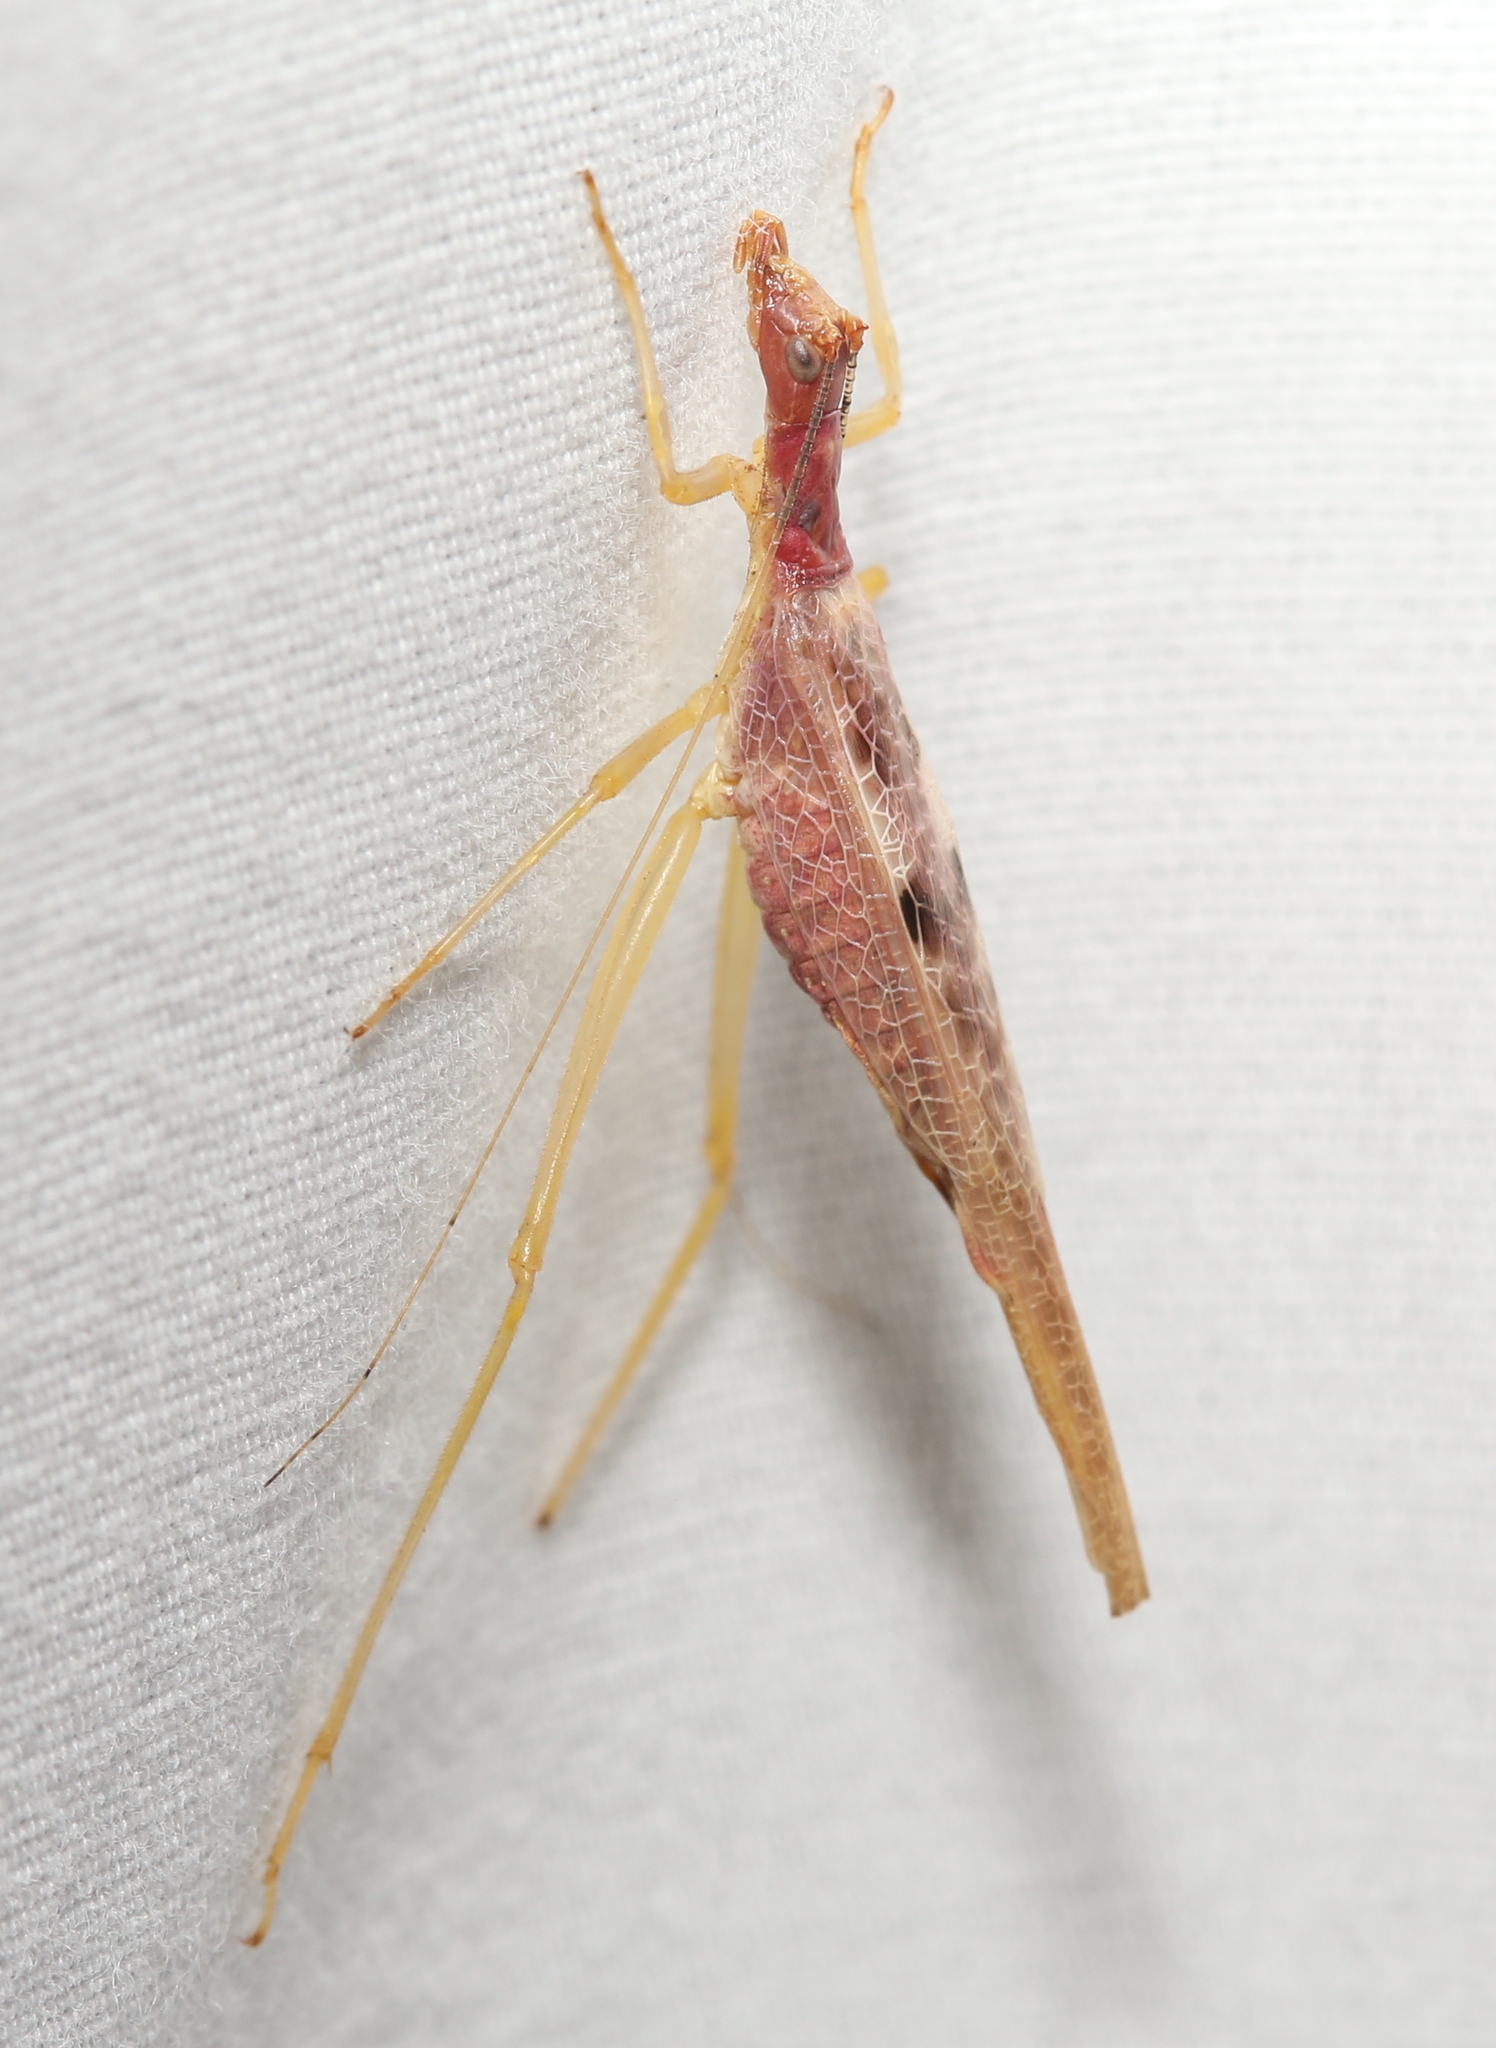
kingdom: Animalia
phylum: Arthropoda
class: Insecta
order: Orthoptera
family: Gryllidae
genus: Neoxabea
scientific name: Neoxabea bipunctata
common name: Two-spotted tree cricket
